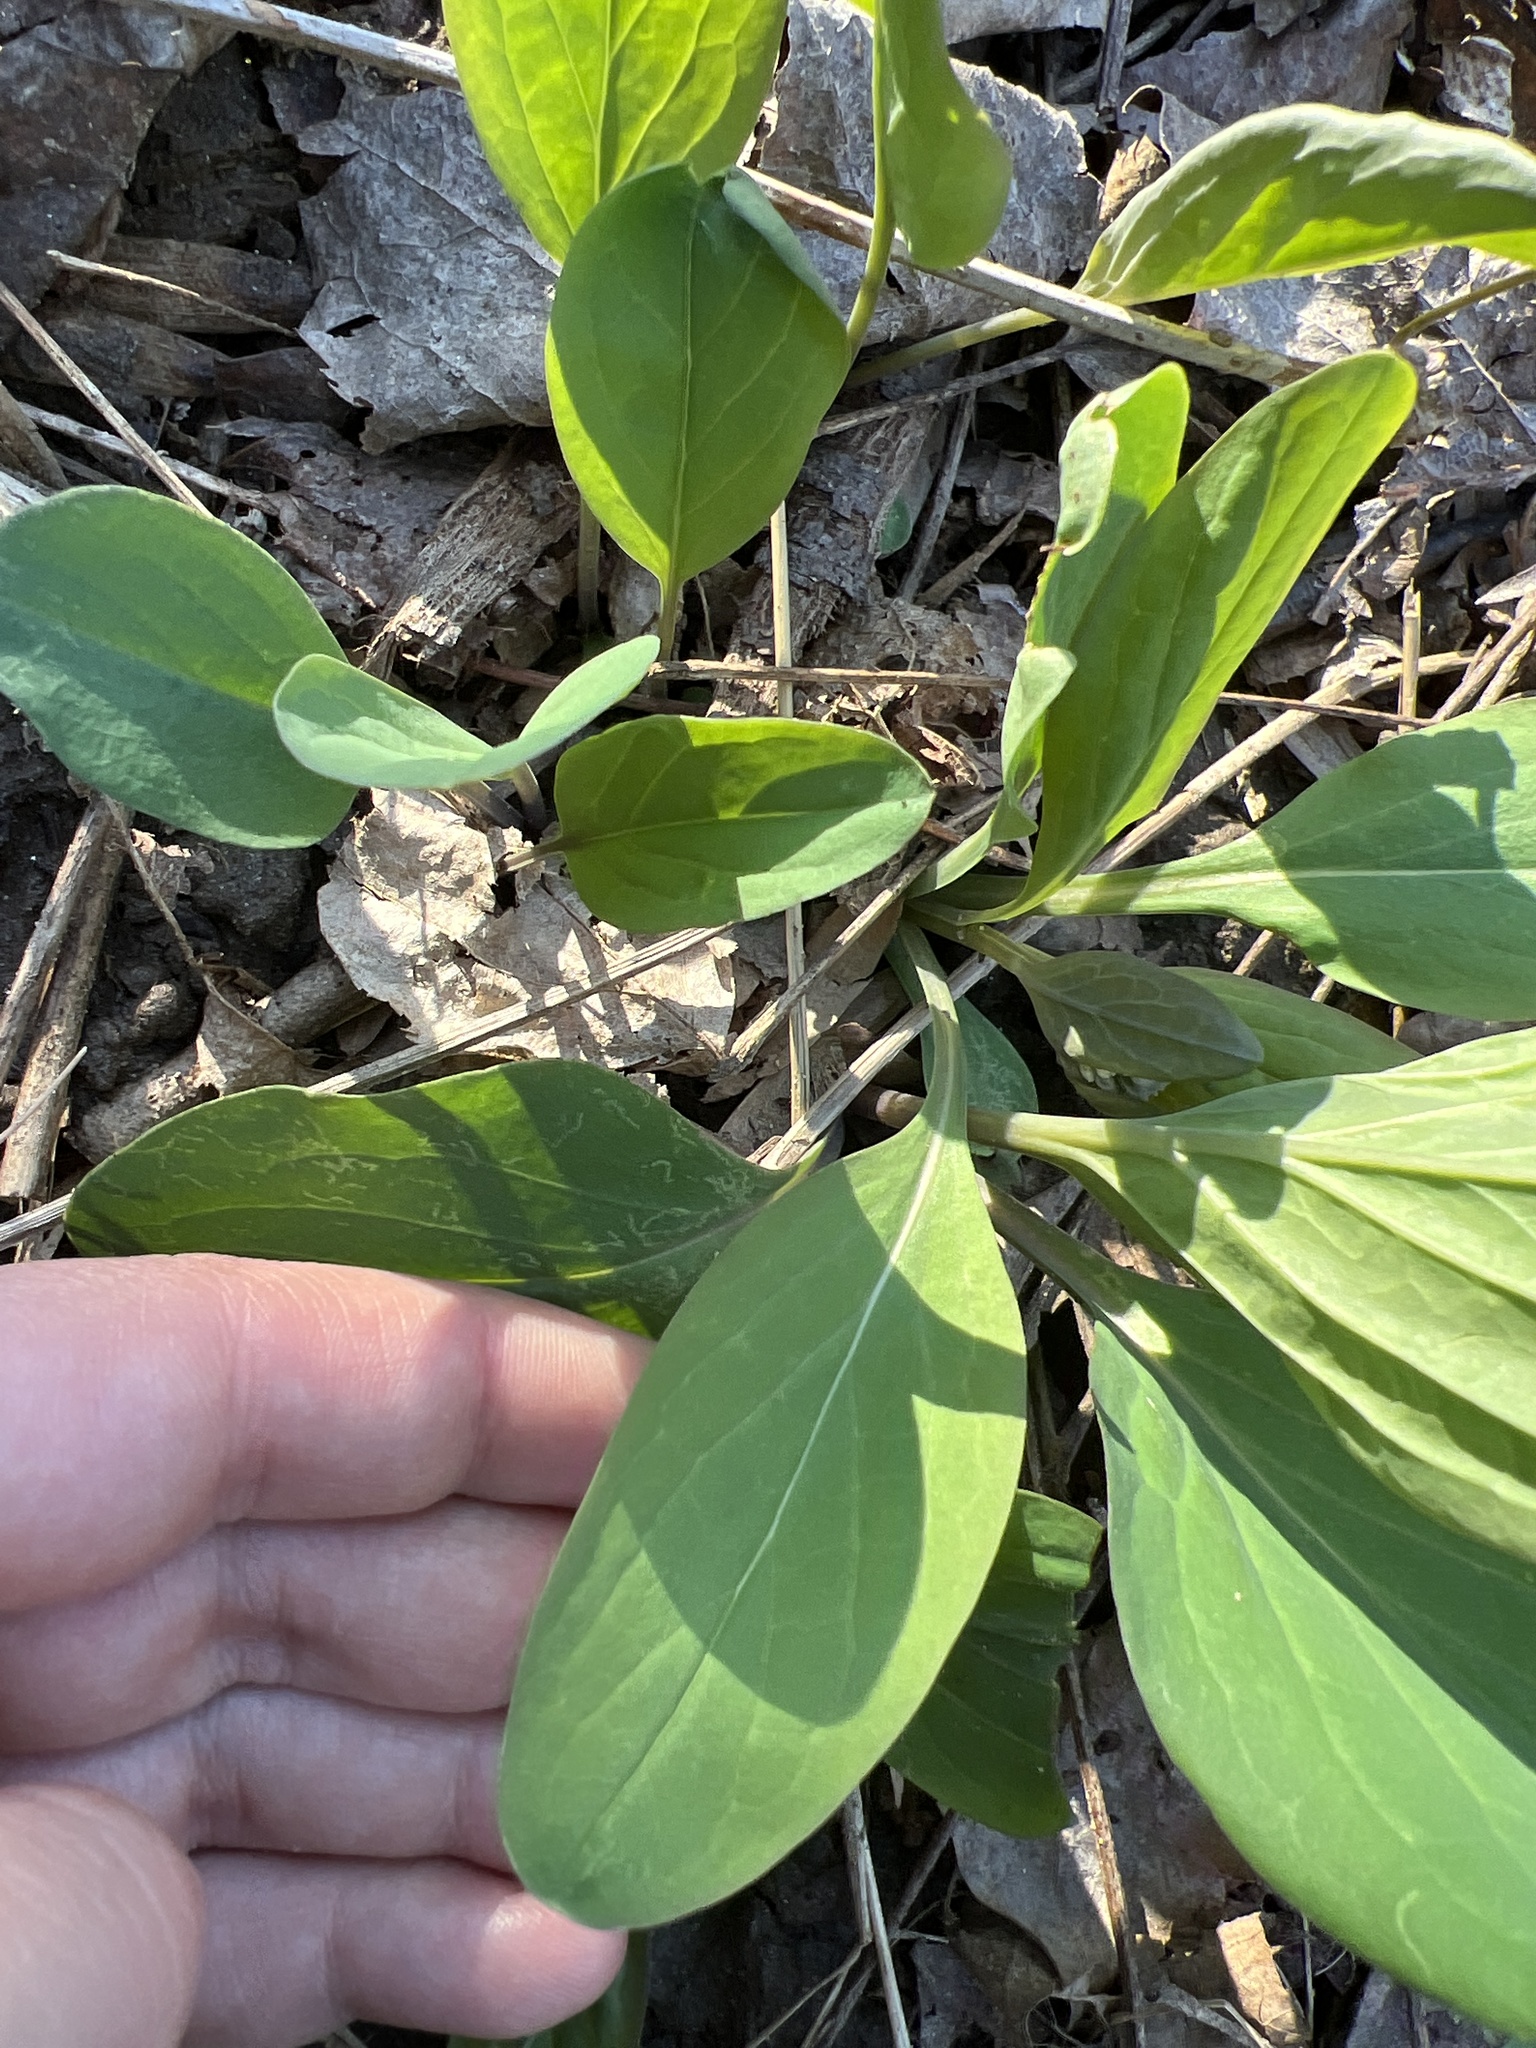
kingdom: Plantae
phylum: Tracheophyta
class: Magnoliopsida
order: Boraginales
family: Boraginaceae
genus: Mertensia
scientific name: Mertensia virginica
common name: Virginia bluebells
